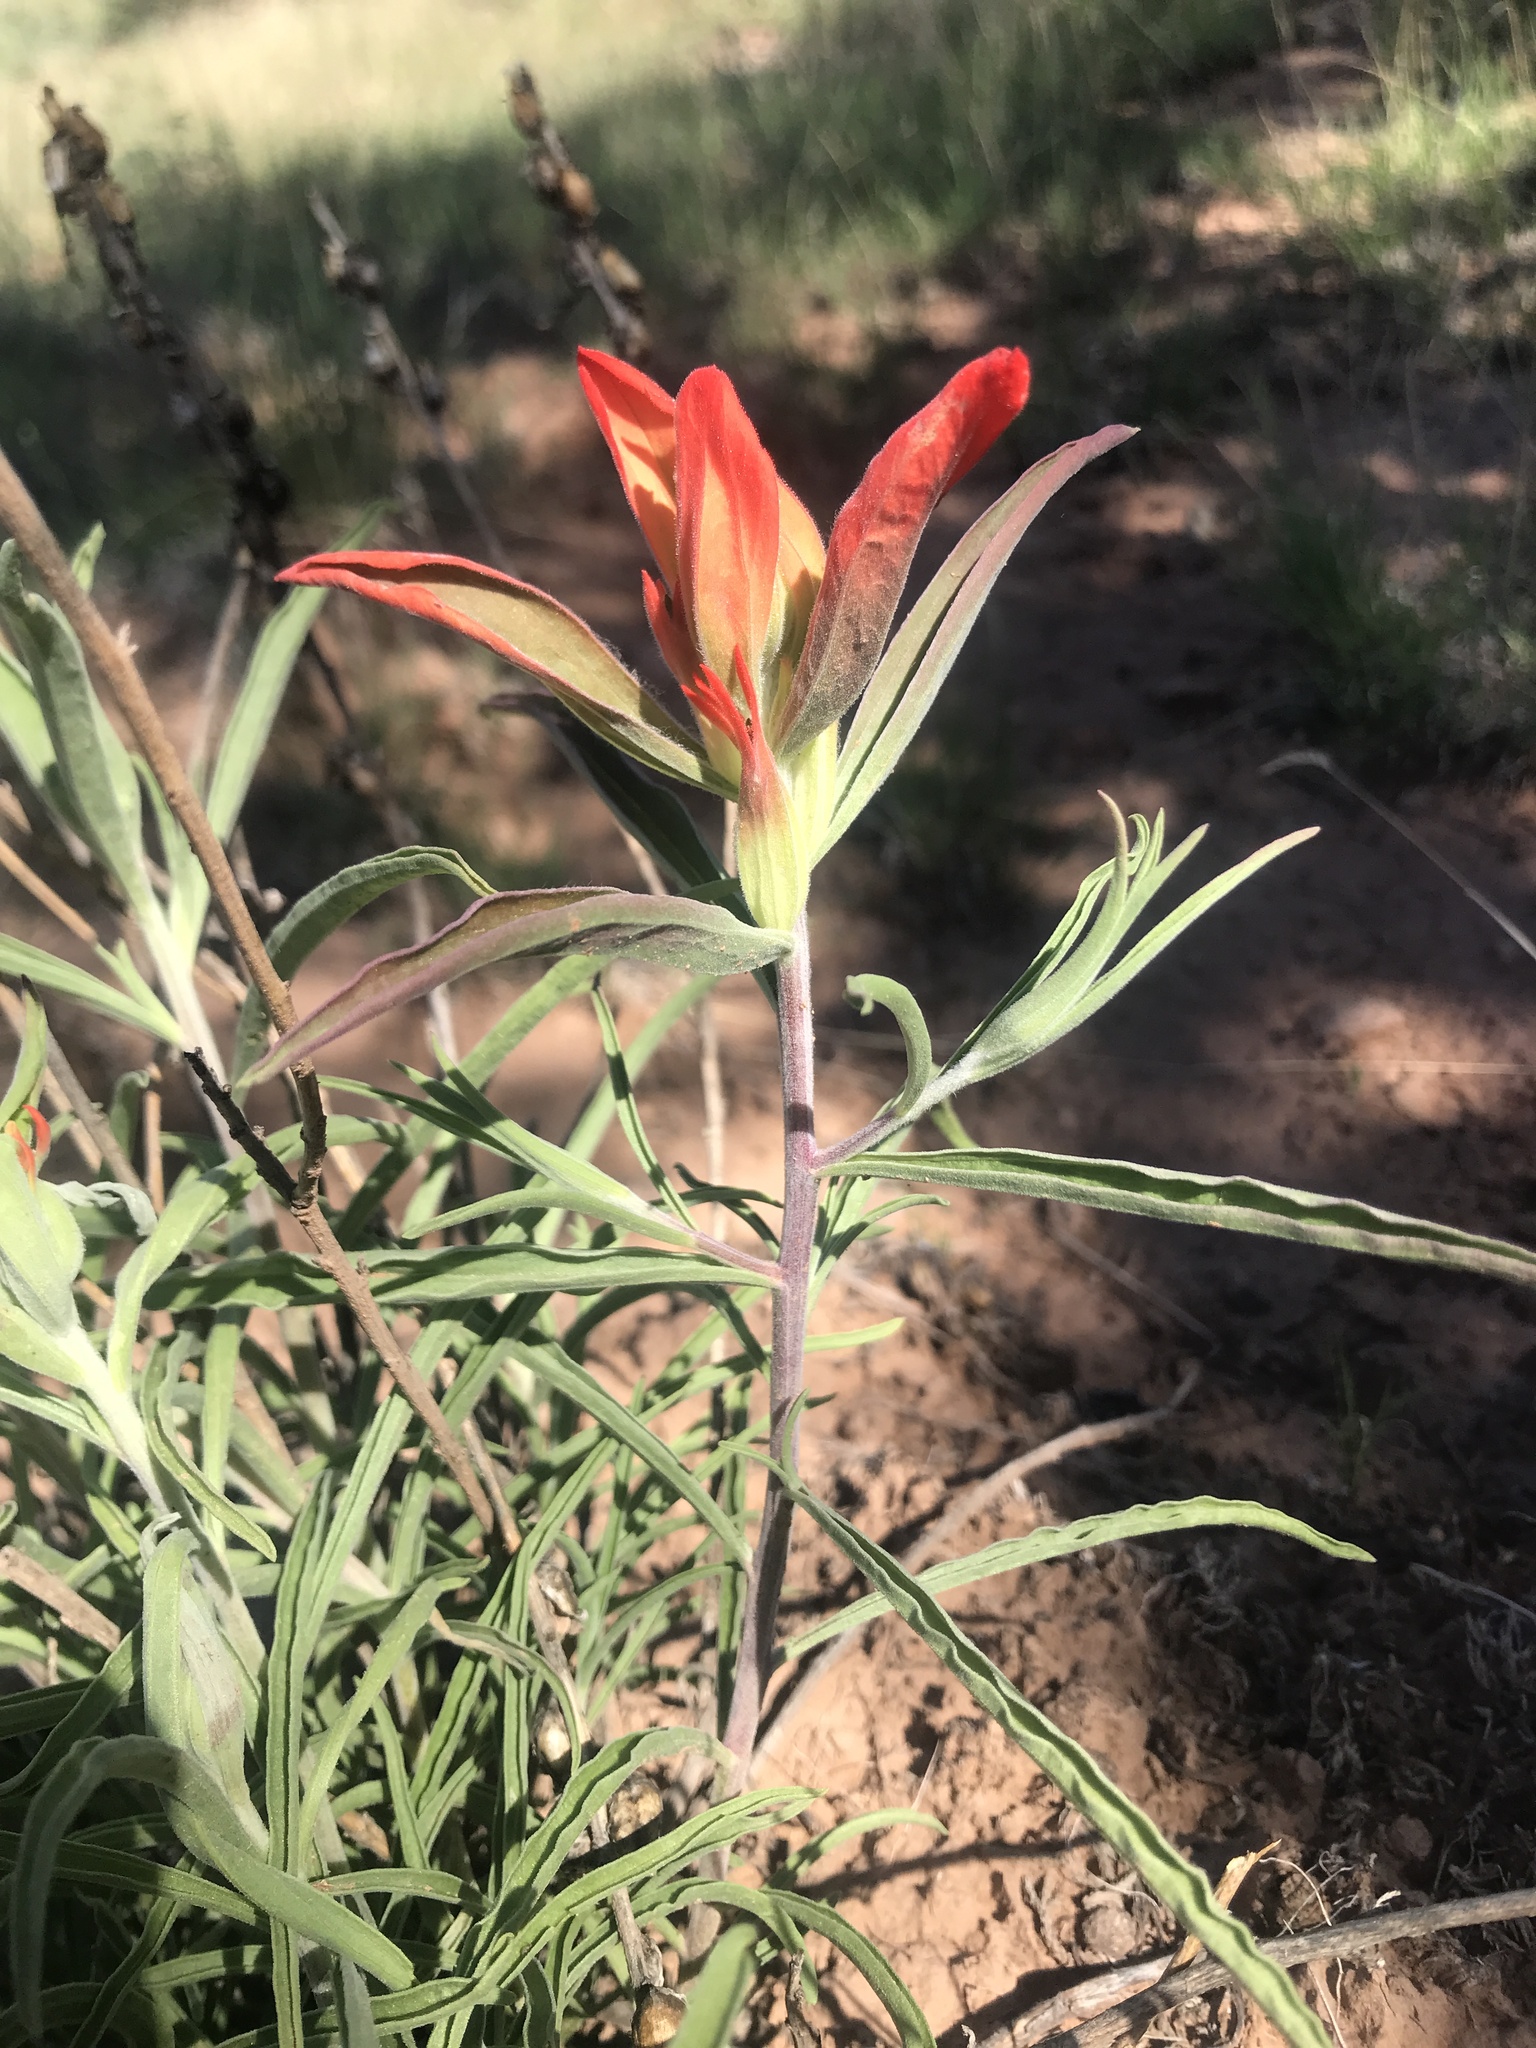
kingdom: Plantae
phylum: Tracheophyta
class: Magnoliopsida
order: Lamiales
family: Orobanchaceae
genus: Castilleja
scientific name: Castilleja integra
